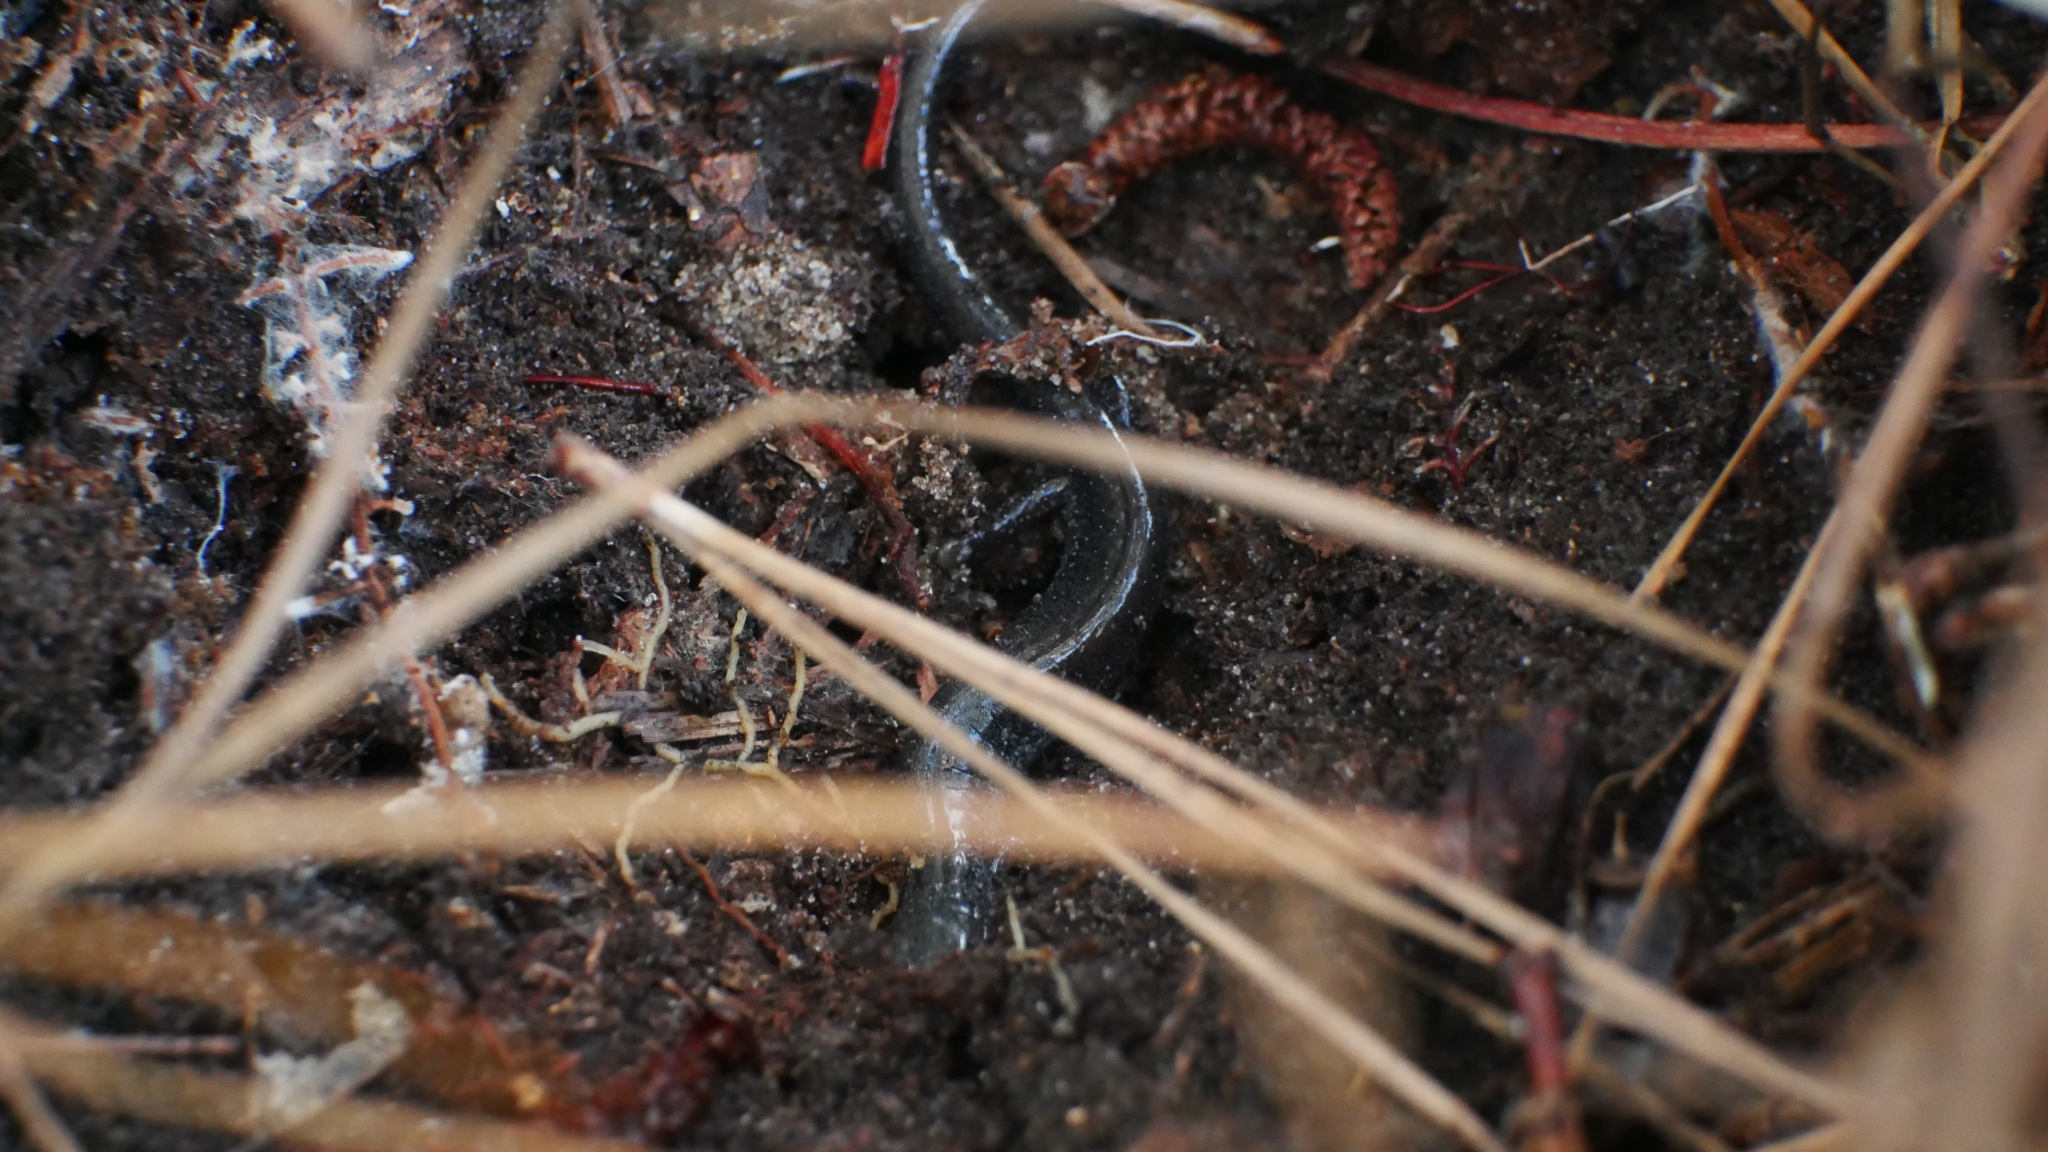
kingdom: Animalia
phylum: Chordata
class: Amphibia
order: Caudata
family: Plethodontidae
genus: Plethodon
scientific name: Plethodon cinereus
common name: Redback salamander
